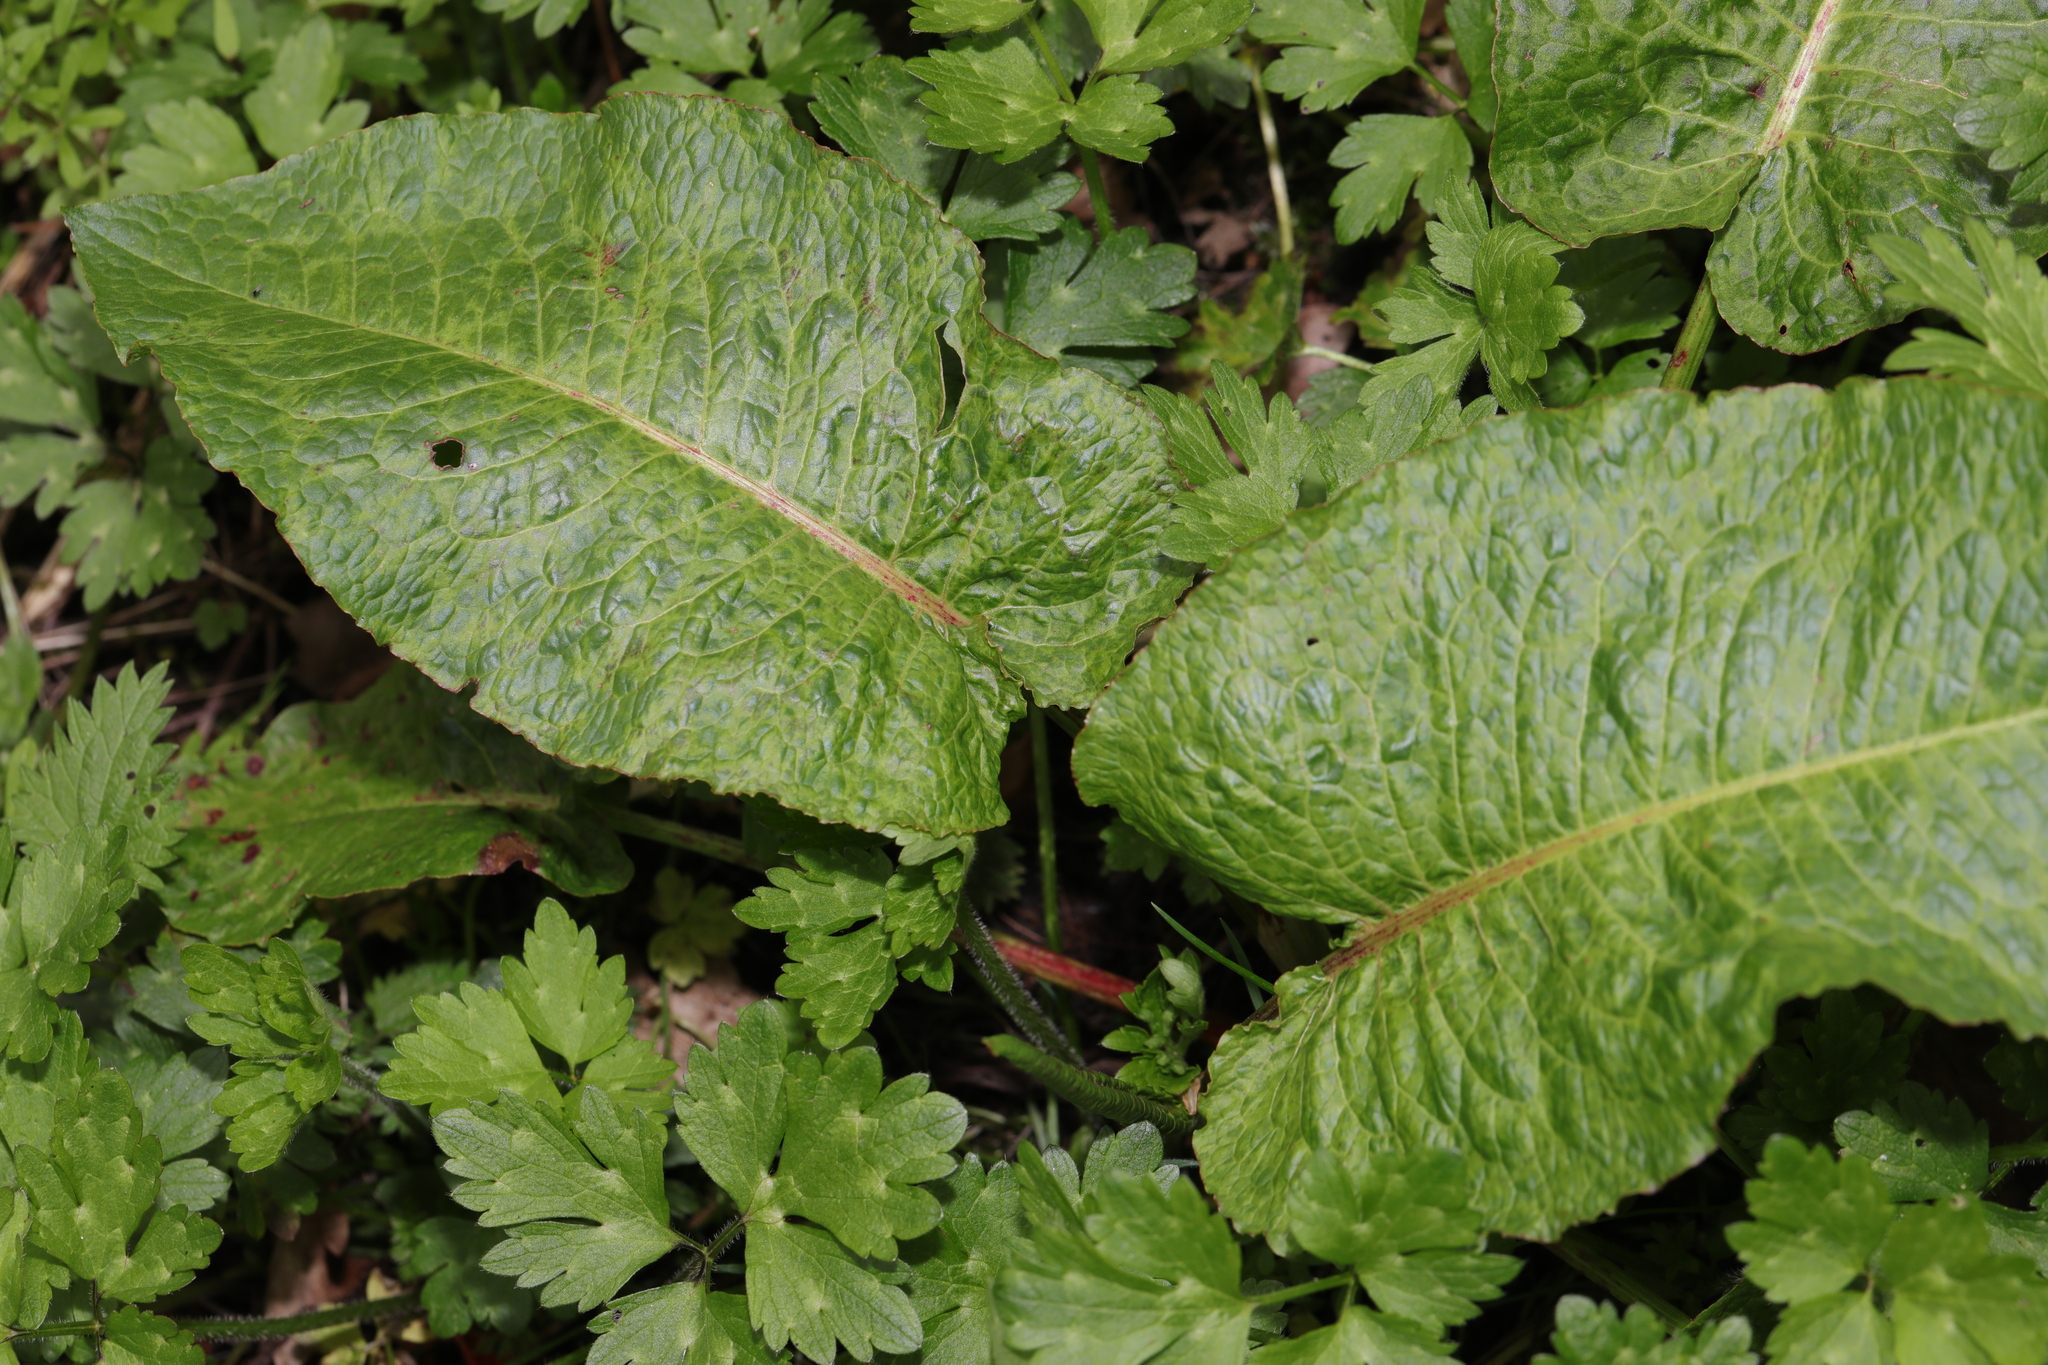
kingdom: Plantae
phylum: Tracheophyta
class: Magnoliopsida
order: Caryophyllales
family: Polygonaceae
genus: Rumex
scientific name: Rumex obtusifolius
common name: Bitter dock
